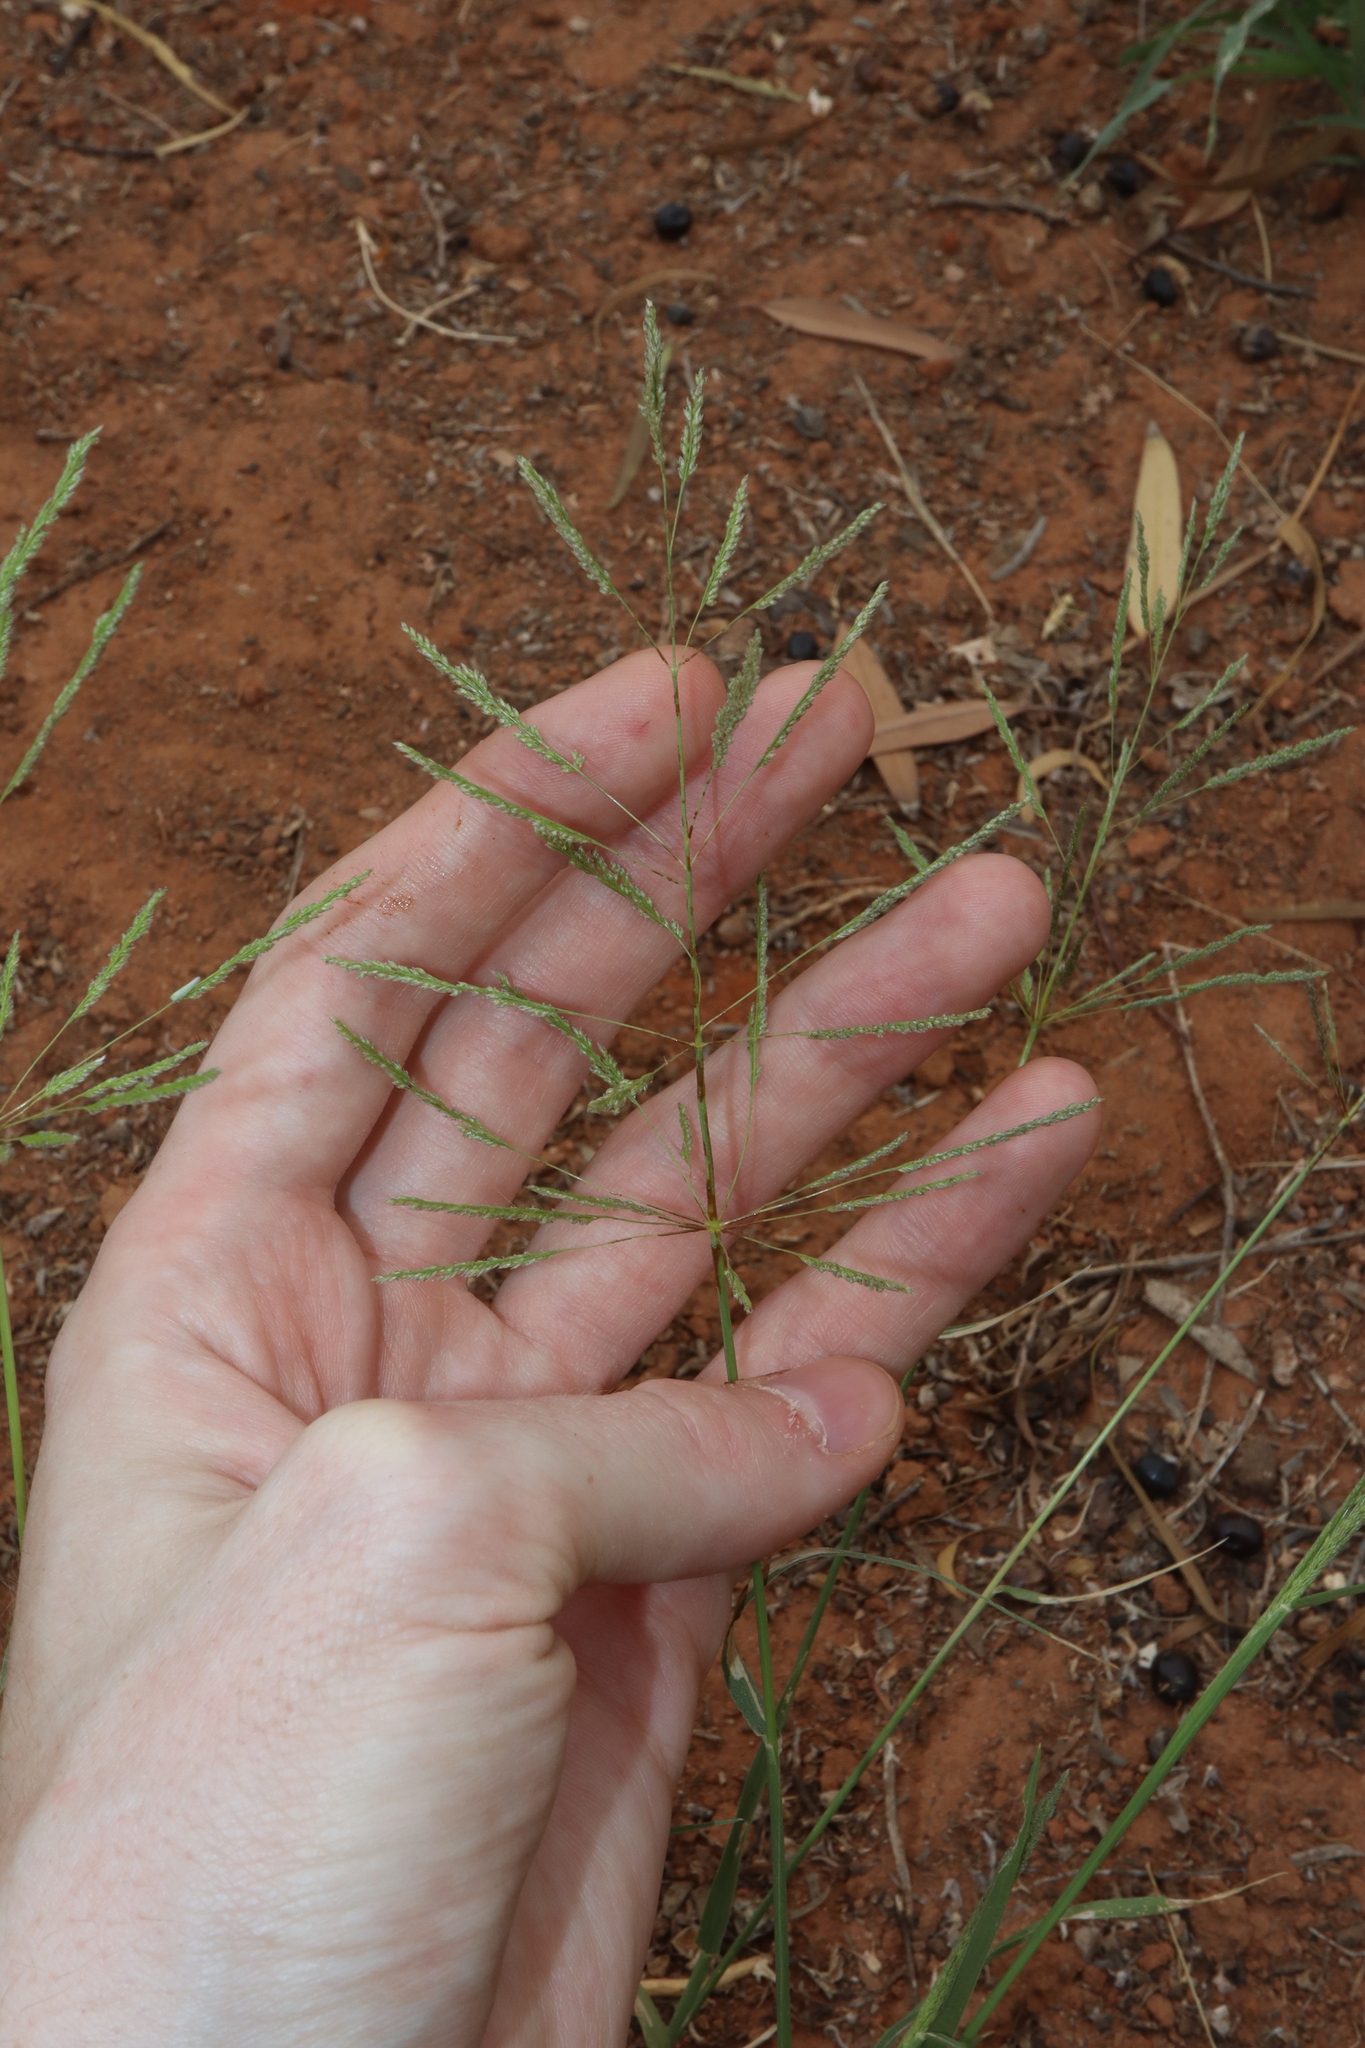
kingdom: Plantae
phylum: Tracheophyta
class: Liliopsida
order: Poales
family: Poaceae
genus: Sporobolus
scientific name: Sporobolus actinocladus
